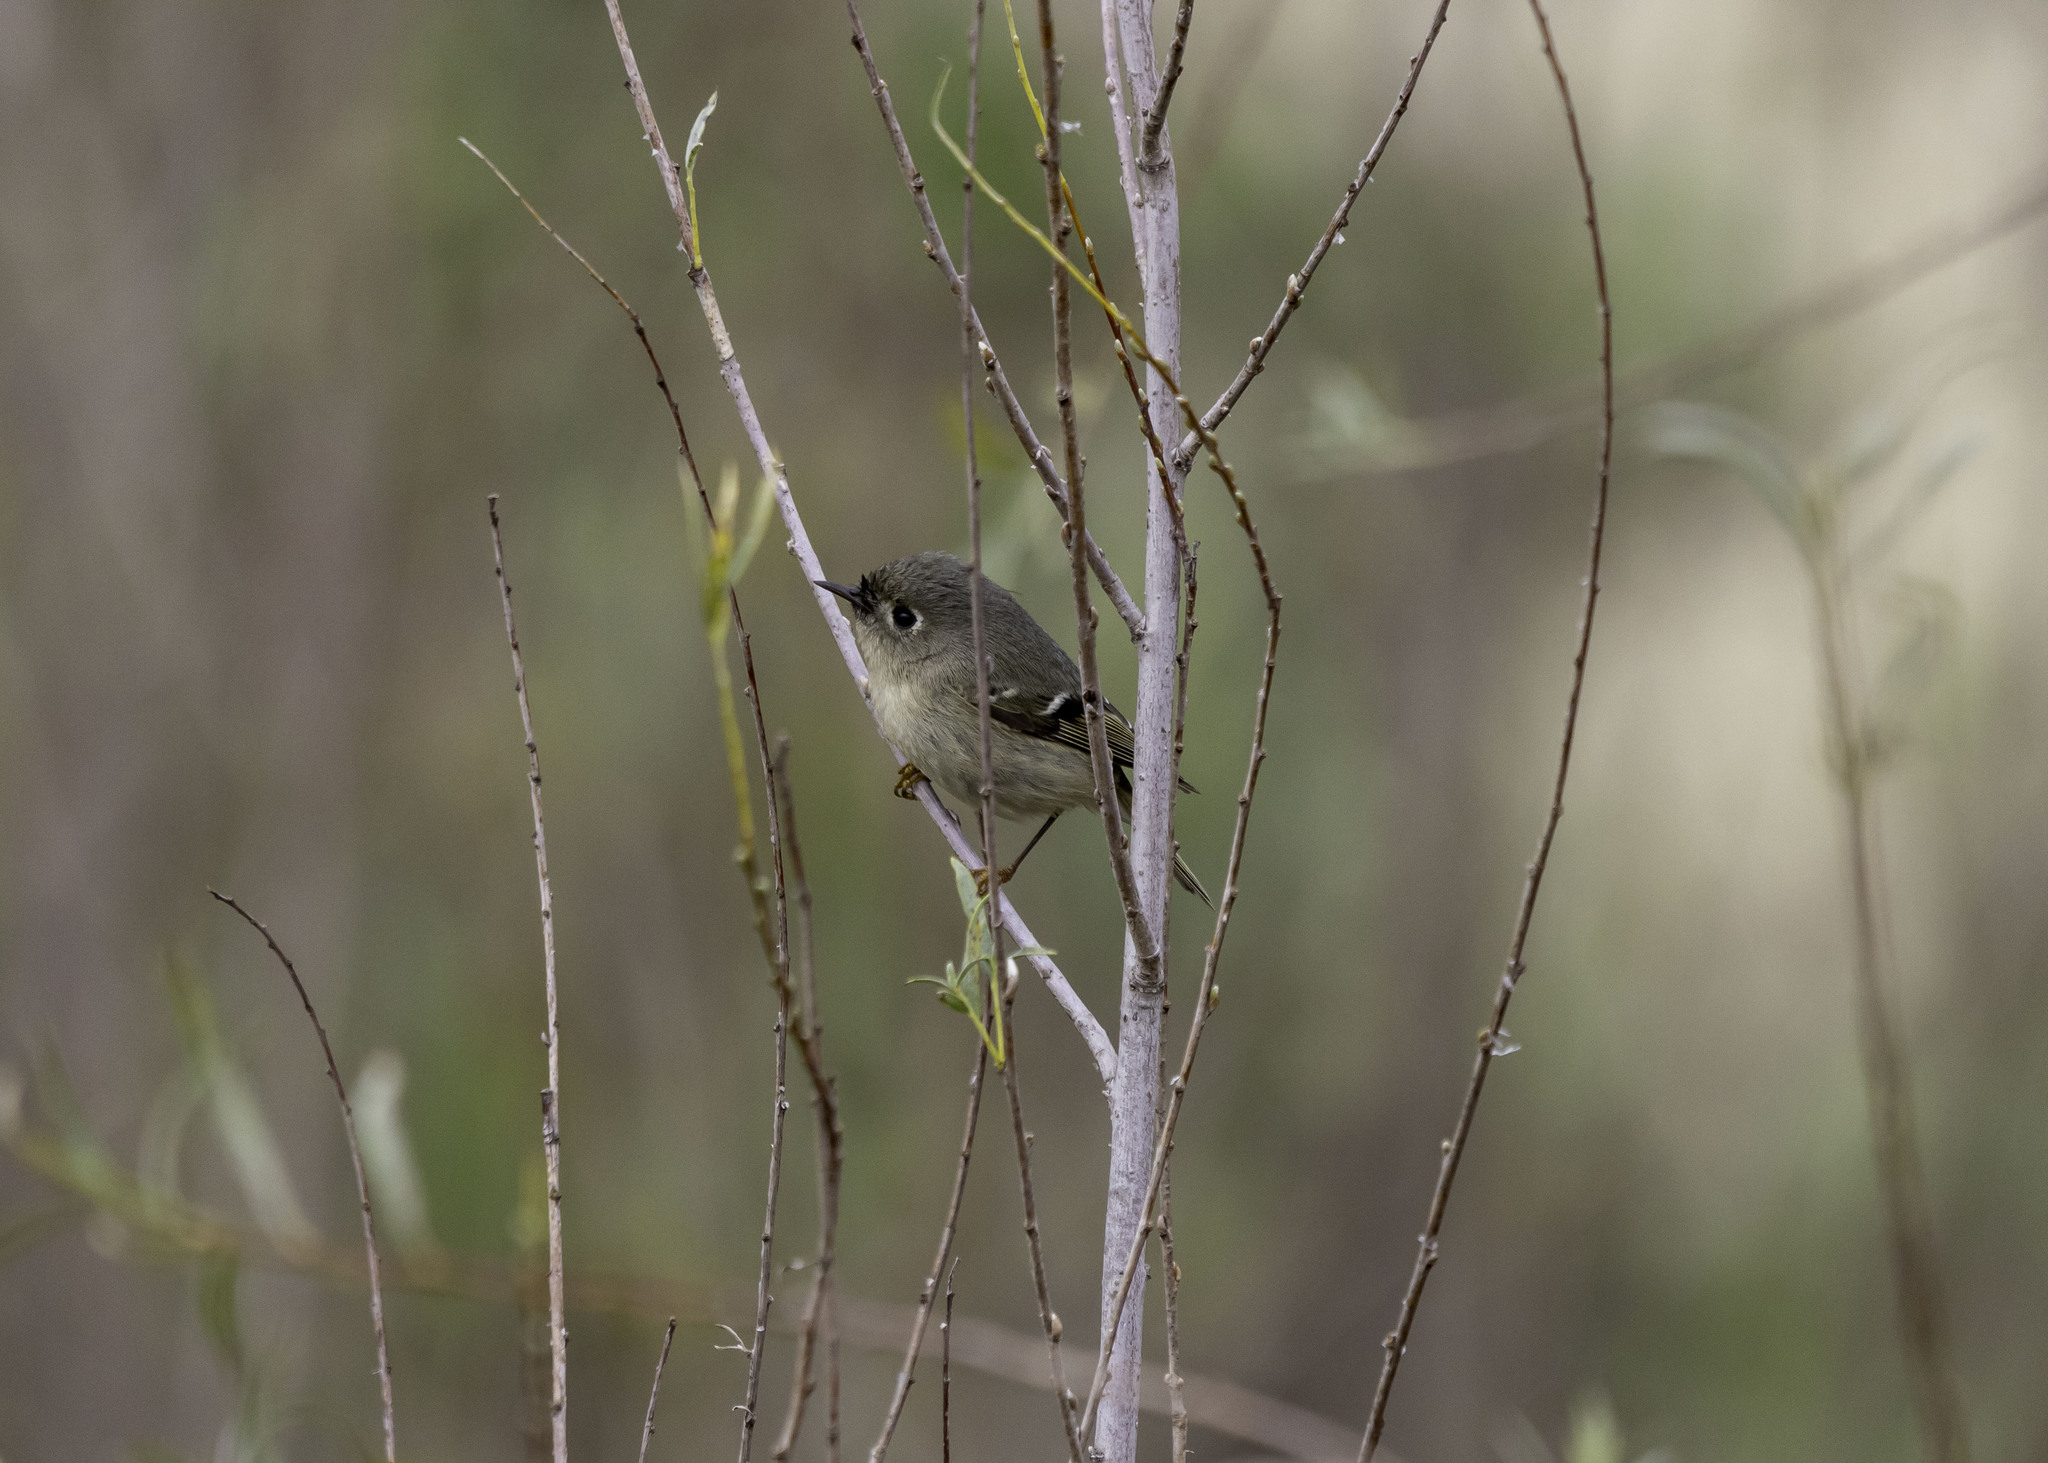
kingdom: Animalia
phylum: Chordata
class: Aves
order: Passeriformes
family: Regulidae
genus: Regulus
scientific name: Regulus calendula
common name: Ruby-crowned kinglet
